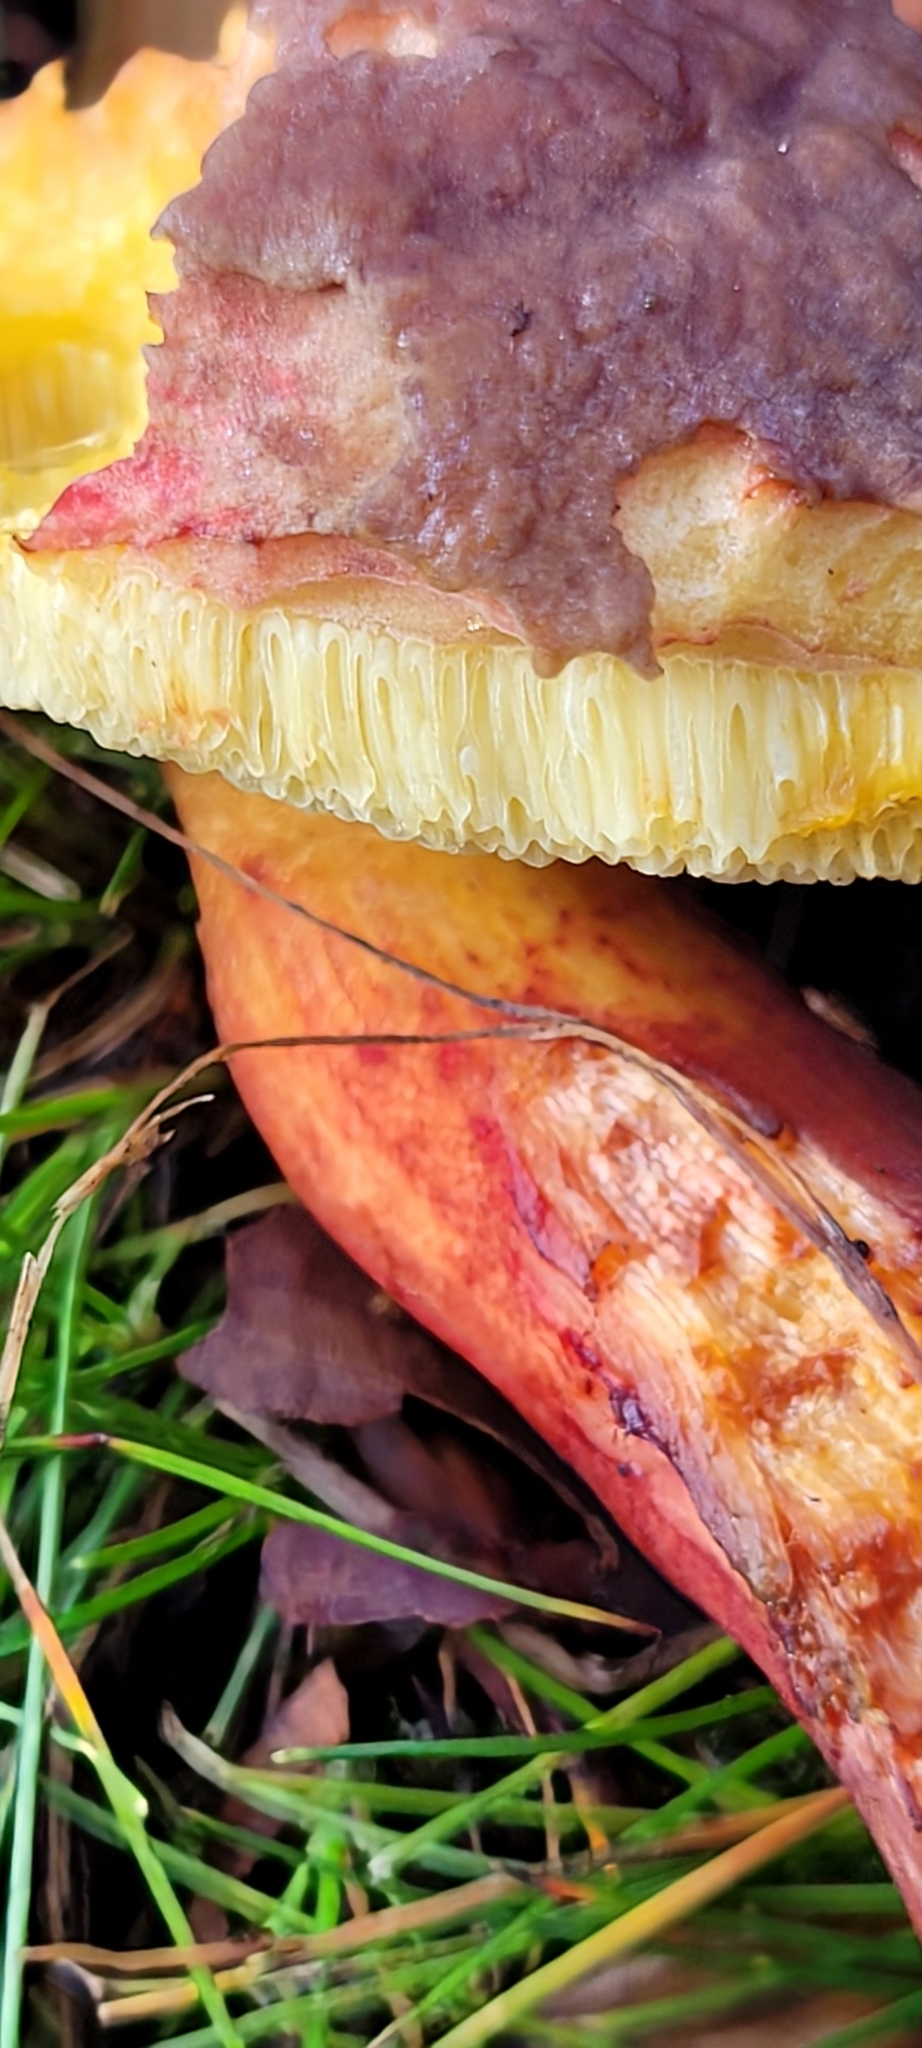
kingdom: Fungi
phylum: Basidiomycota
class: Agaricomycetes
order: Boletales
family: Boletaceae
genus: Xerocomellus
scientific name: Xerocomellus pruinatus
